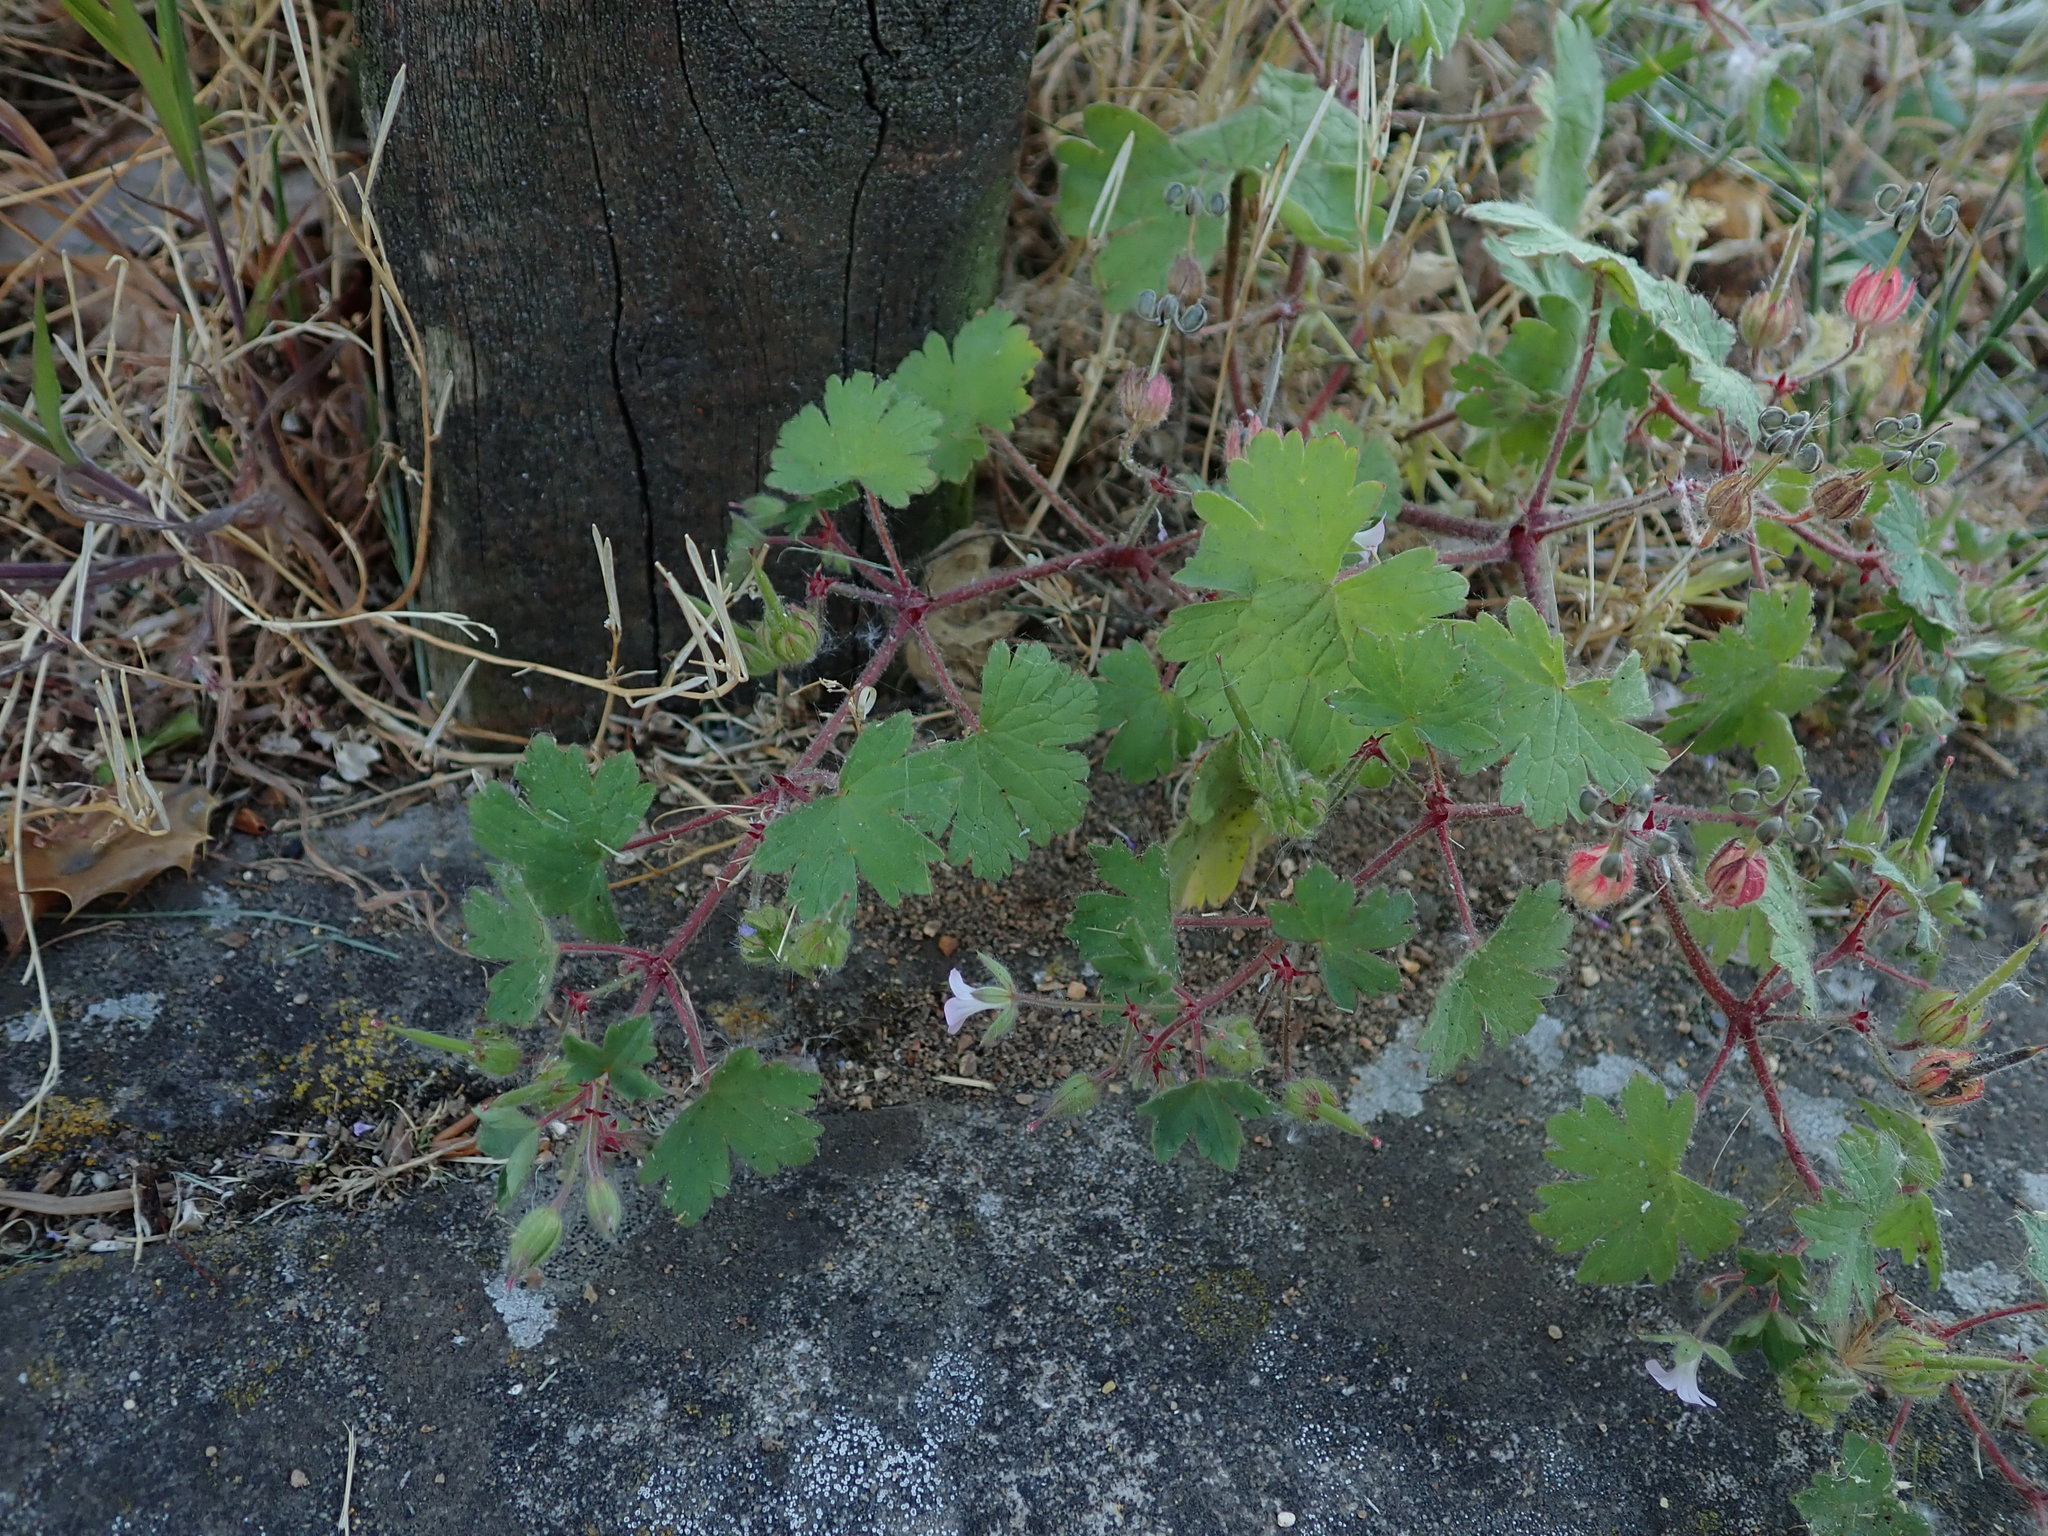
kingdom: Plantae
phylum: Tracheophyta
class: Magnoliopsida
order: Geraniales
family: Geraniaceae
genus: Geranium
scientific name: Geranium rotundifolium
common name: Round-leaved crane's-bill
